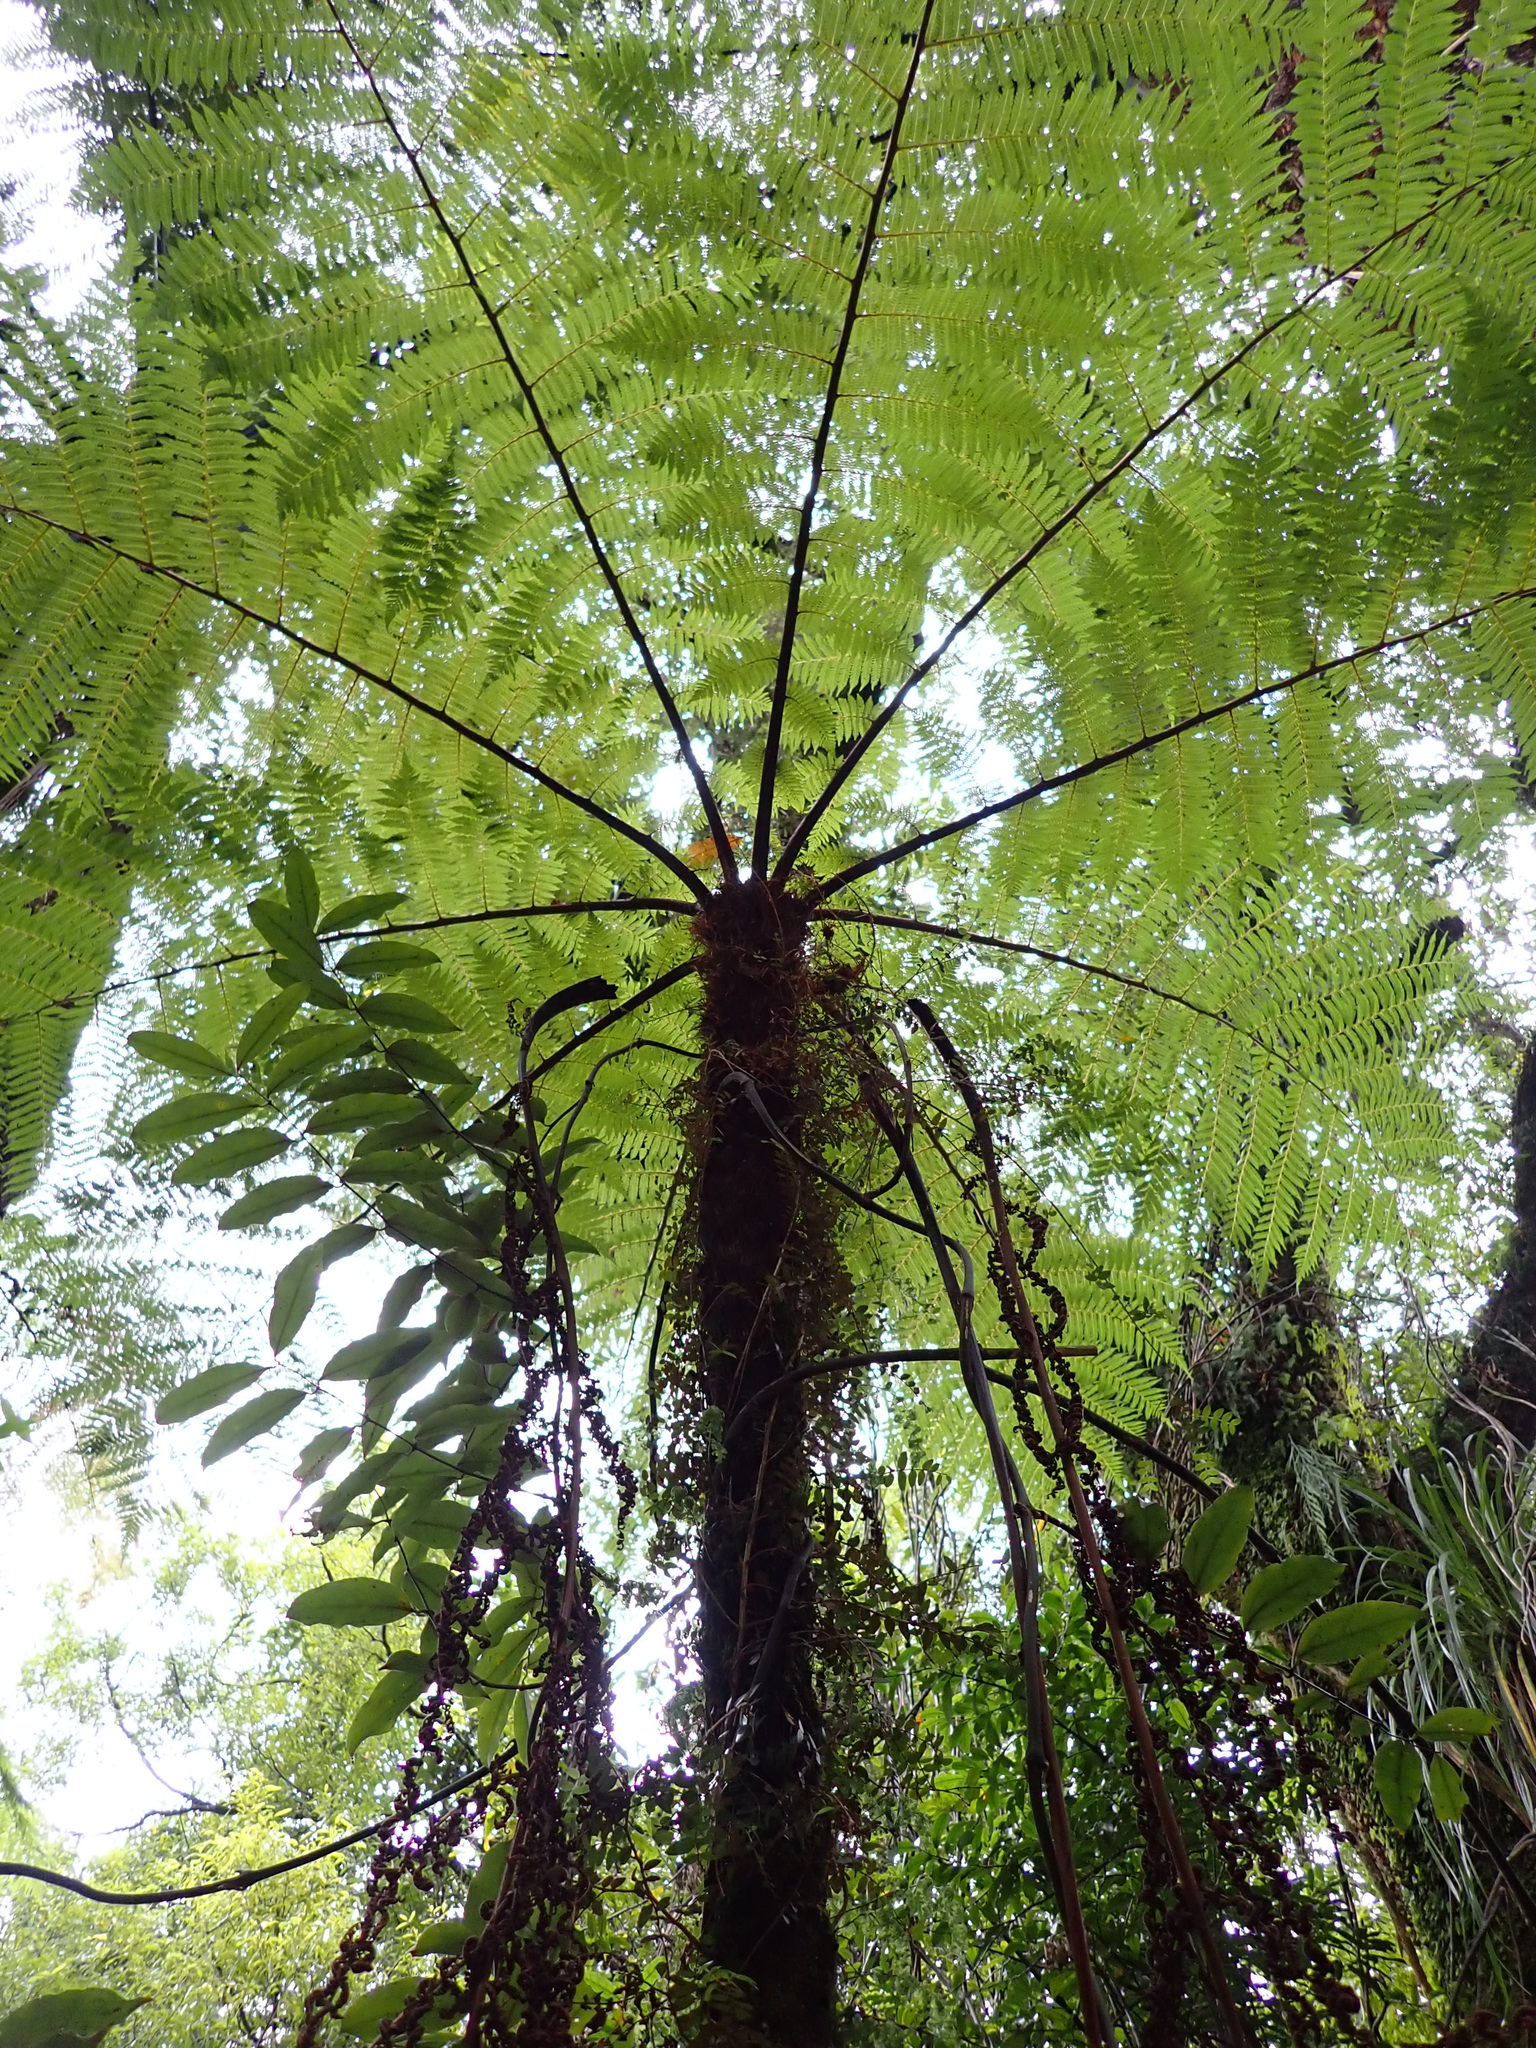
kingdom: Plantae
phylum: Tracheophyta
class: Polypodiopsida
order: Cyatheales
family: Cyatheaceae
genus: Cyathea
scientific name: Cyathea cunninghamii
